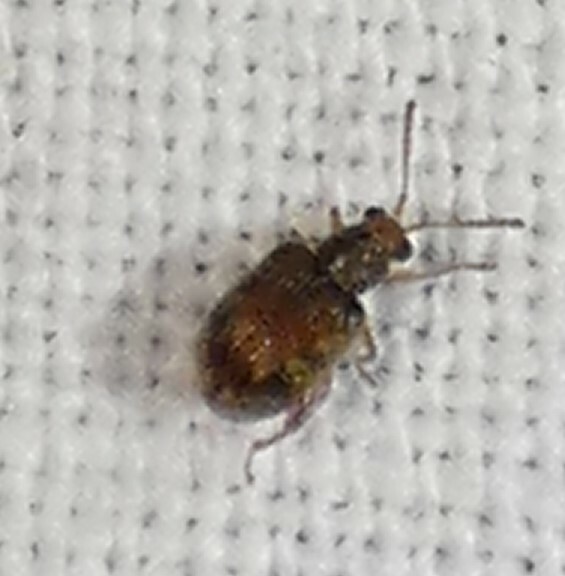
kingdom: Animalia
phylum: Arthropoda
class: Insecta
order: Coleoptera
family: Chrysomelidae
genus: Pseudolampis
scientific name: Pseudolampis guttata
